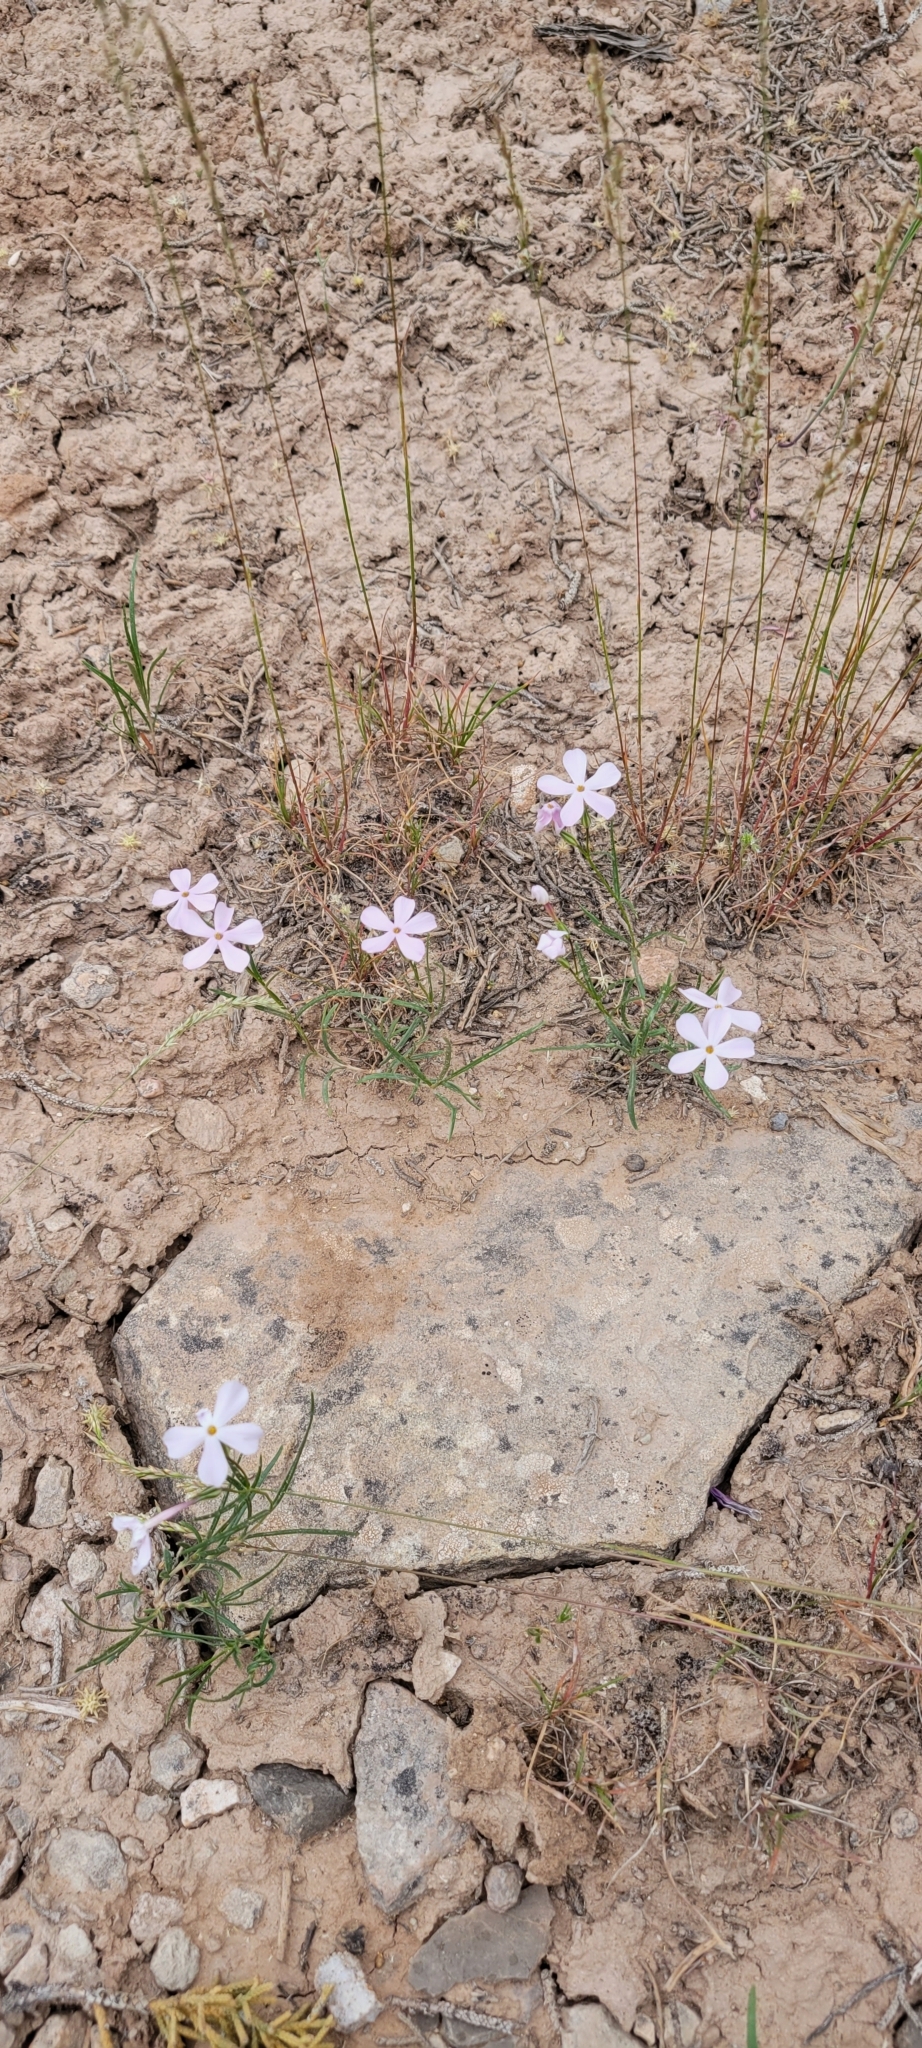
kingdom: Plantae
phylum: Tracheophyta
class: Magnoliopsida
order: Ericales
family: Polemoniaceae
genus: Phlox
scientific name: Phlox longifolia
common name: Longleaf phlox
